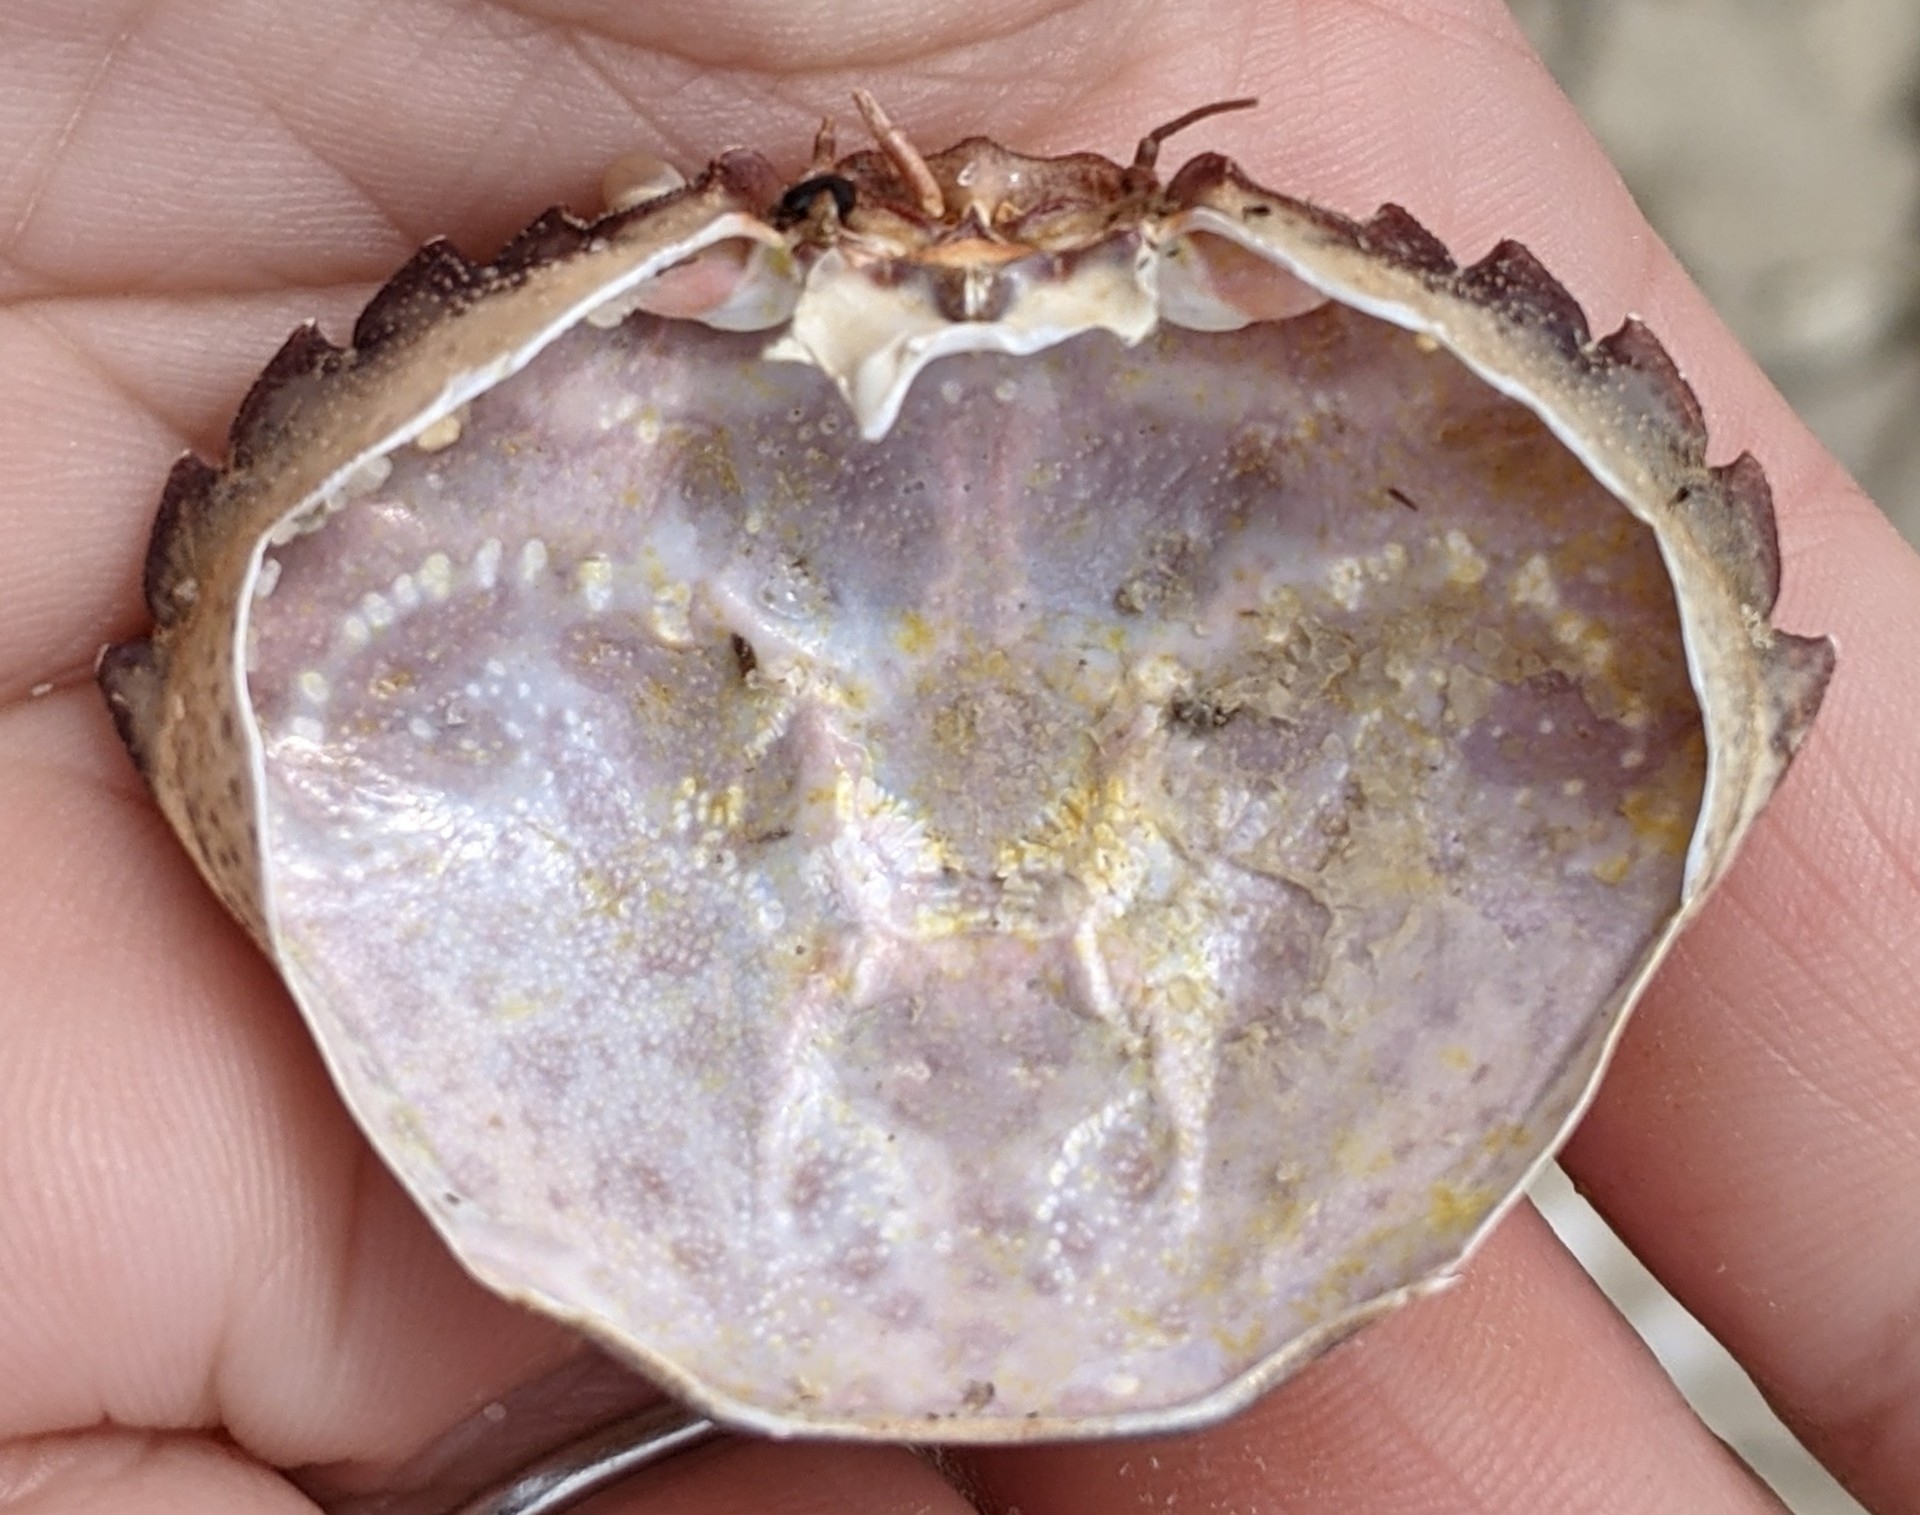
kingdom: Animalia
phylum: Arthropoda
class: Malacostraca
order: Decapoda
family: Carcinidae
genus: Carcinus
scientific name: Carcinus maenas
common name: European green crab
